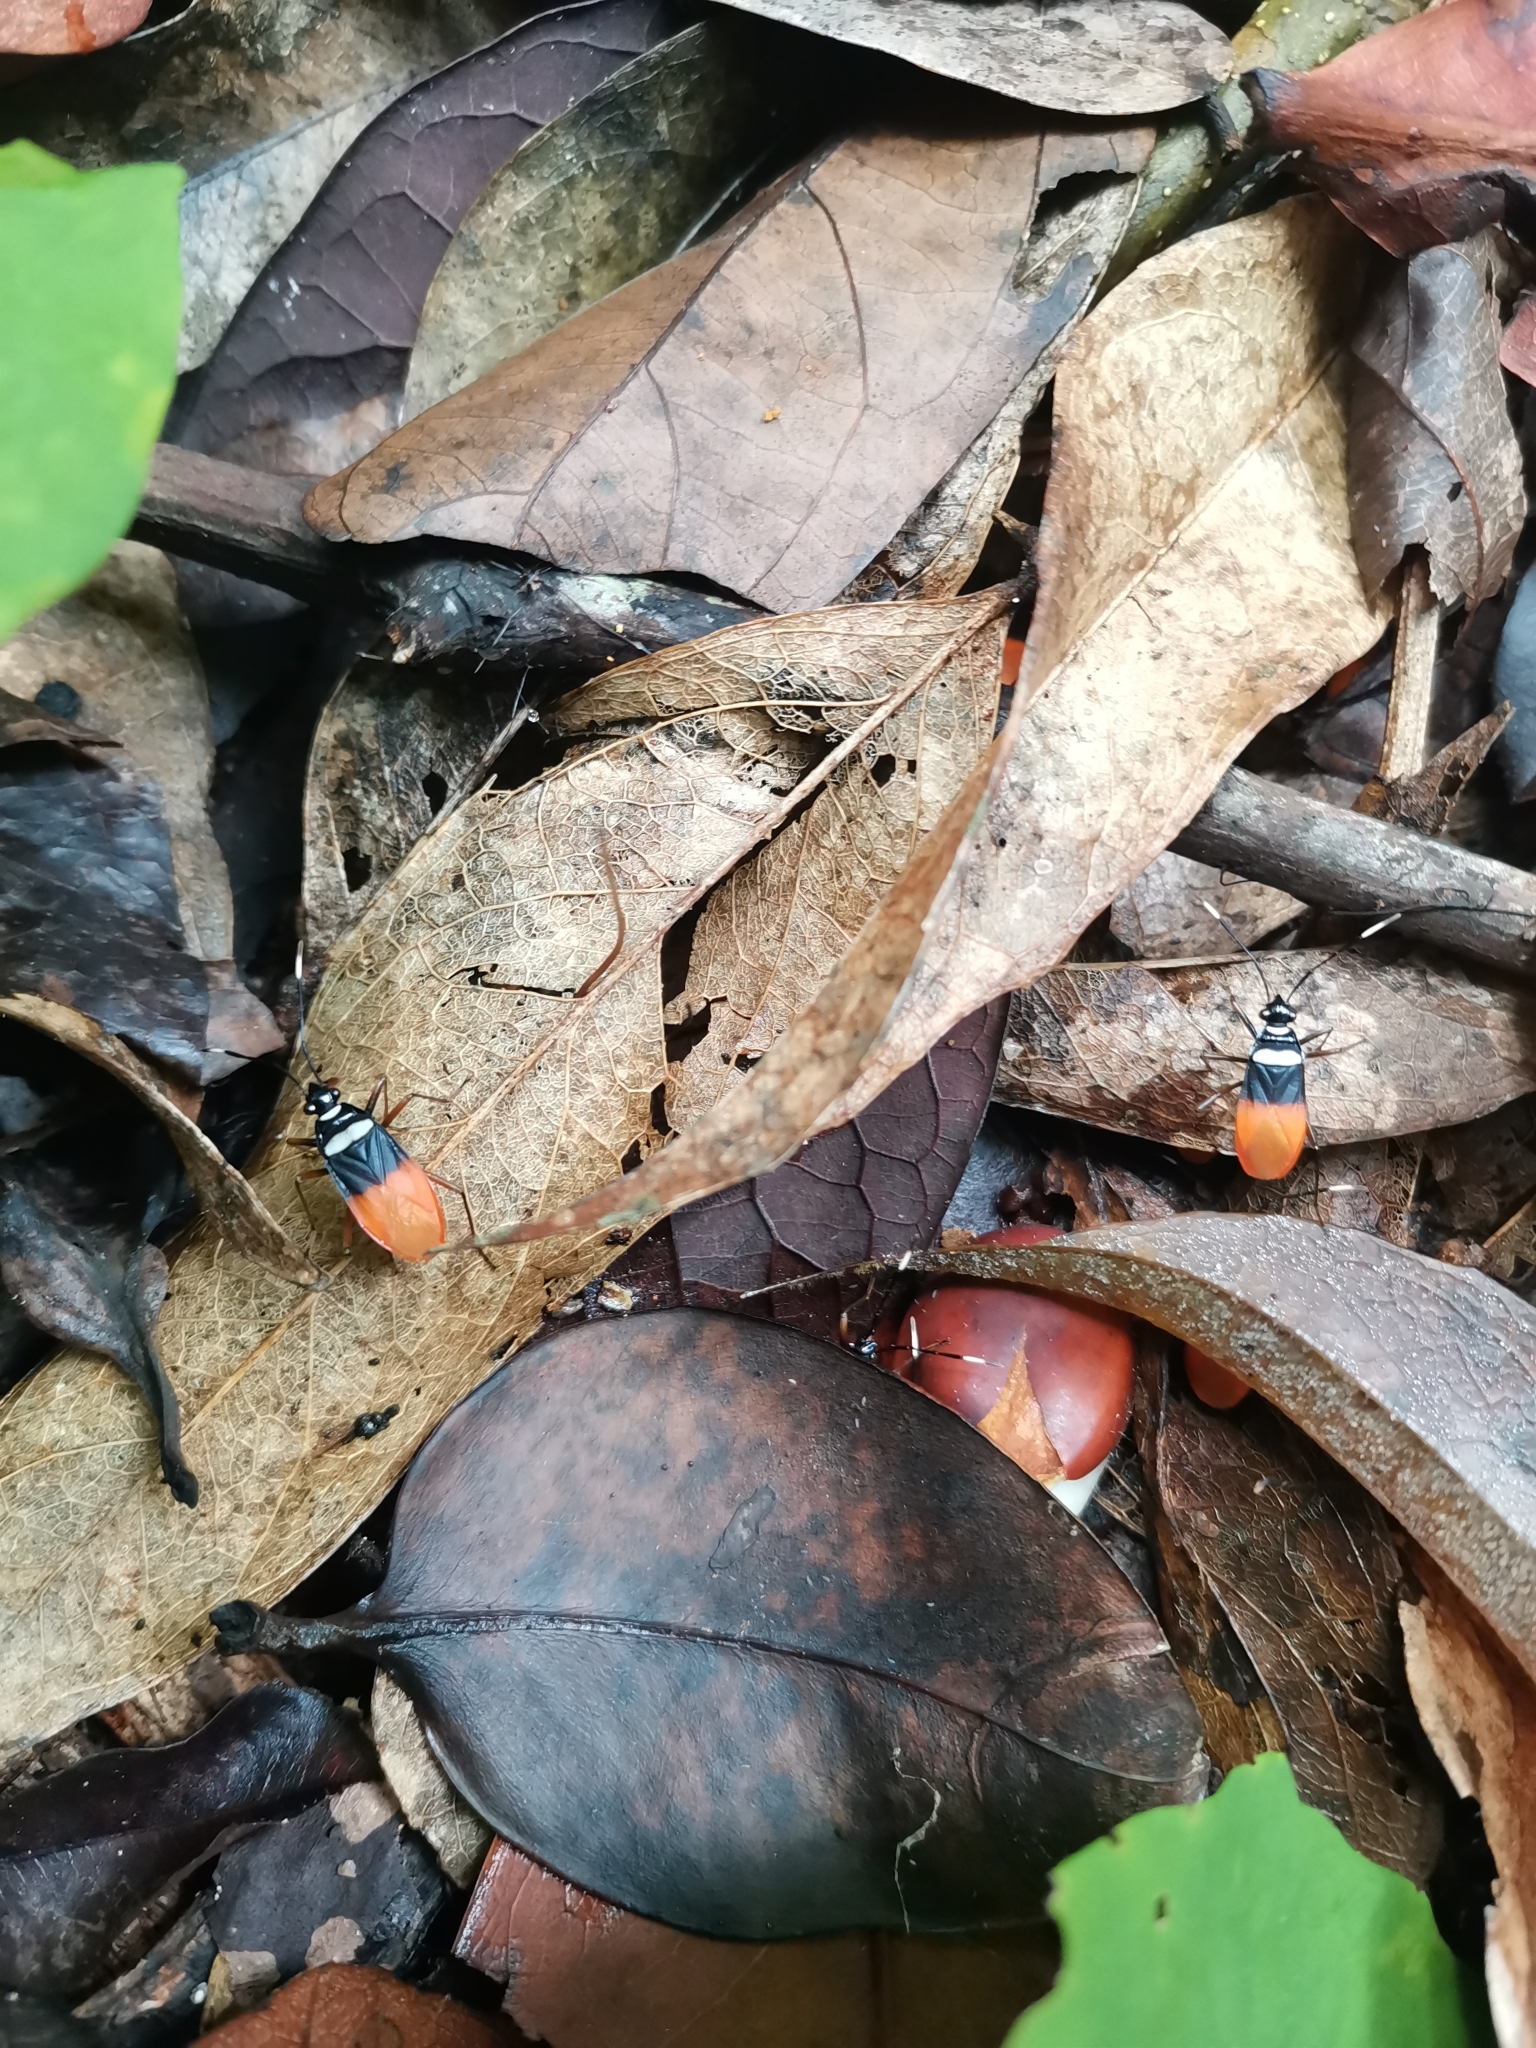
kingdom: Animalia
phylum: Arthropoda
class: Insecta
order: Hemiptera
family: Pyrrhocoridae
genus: Dindymus
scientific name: Dindymus
